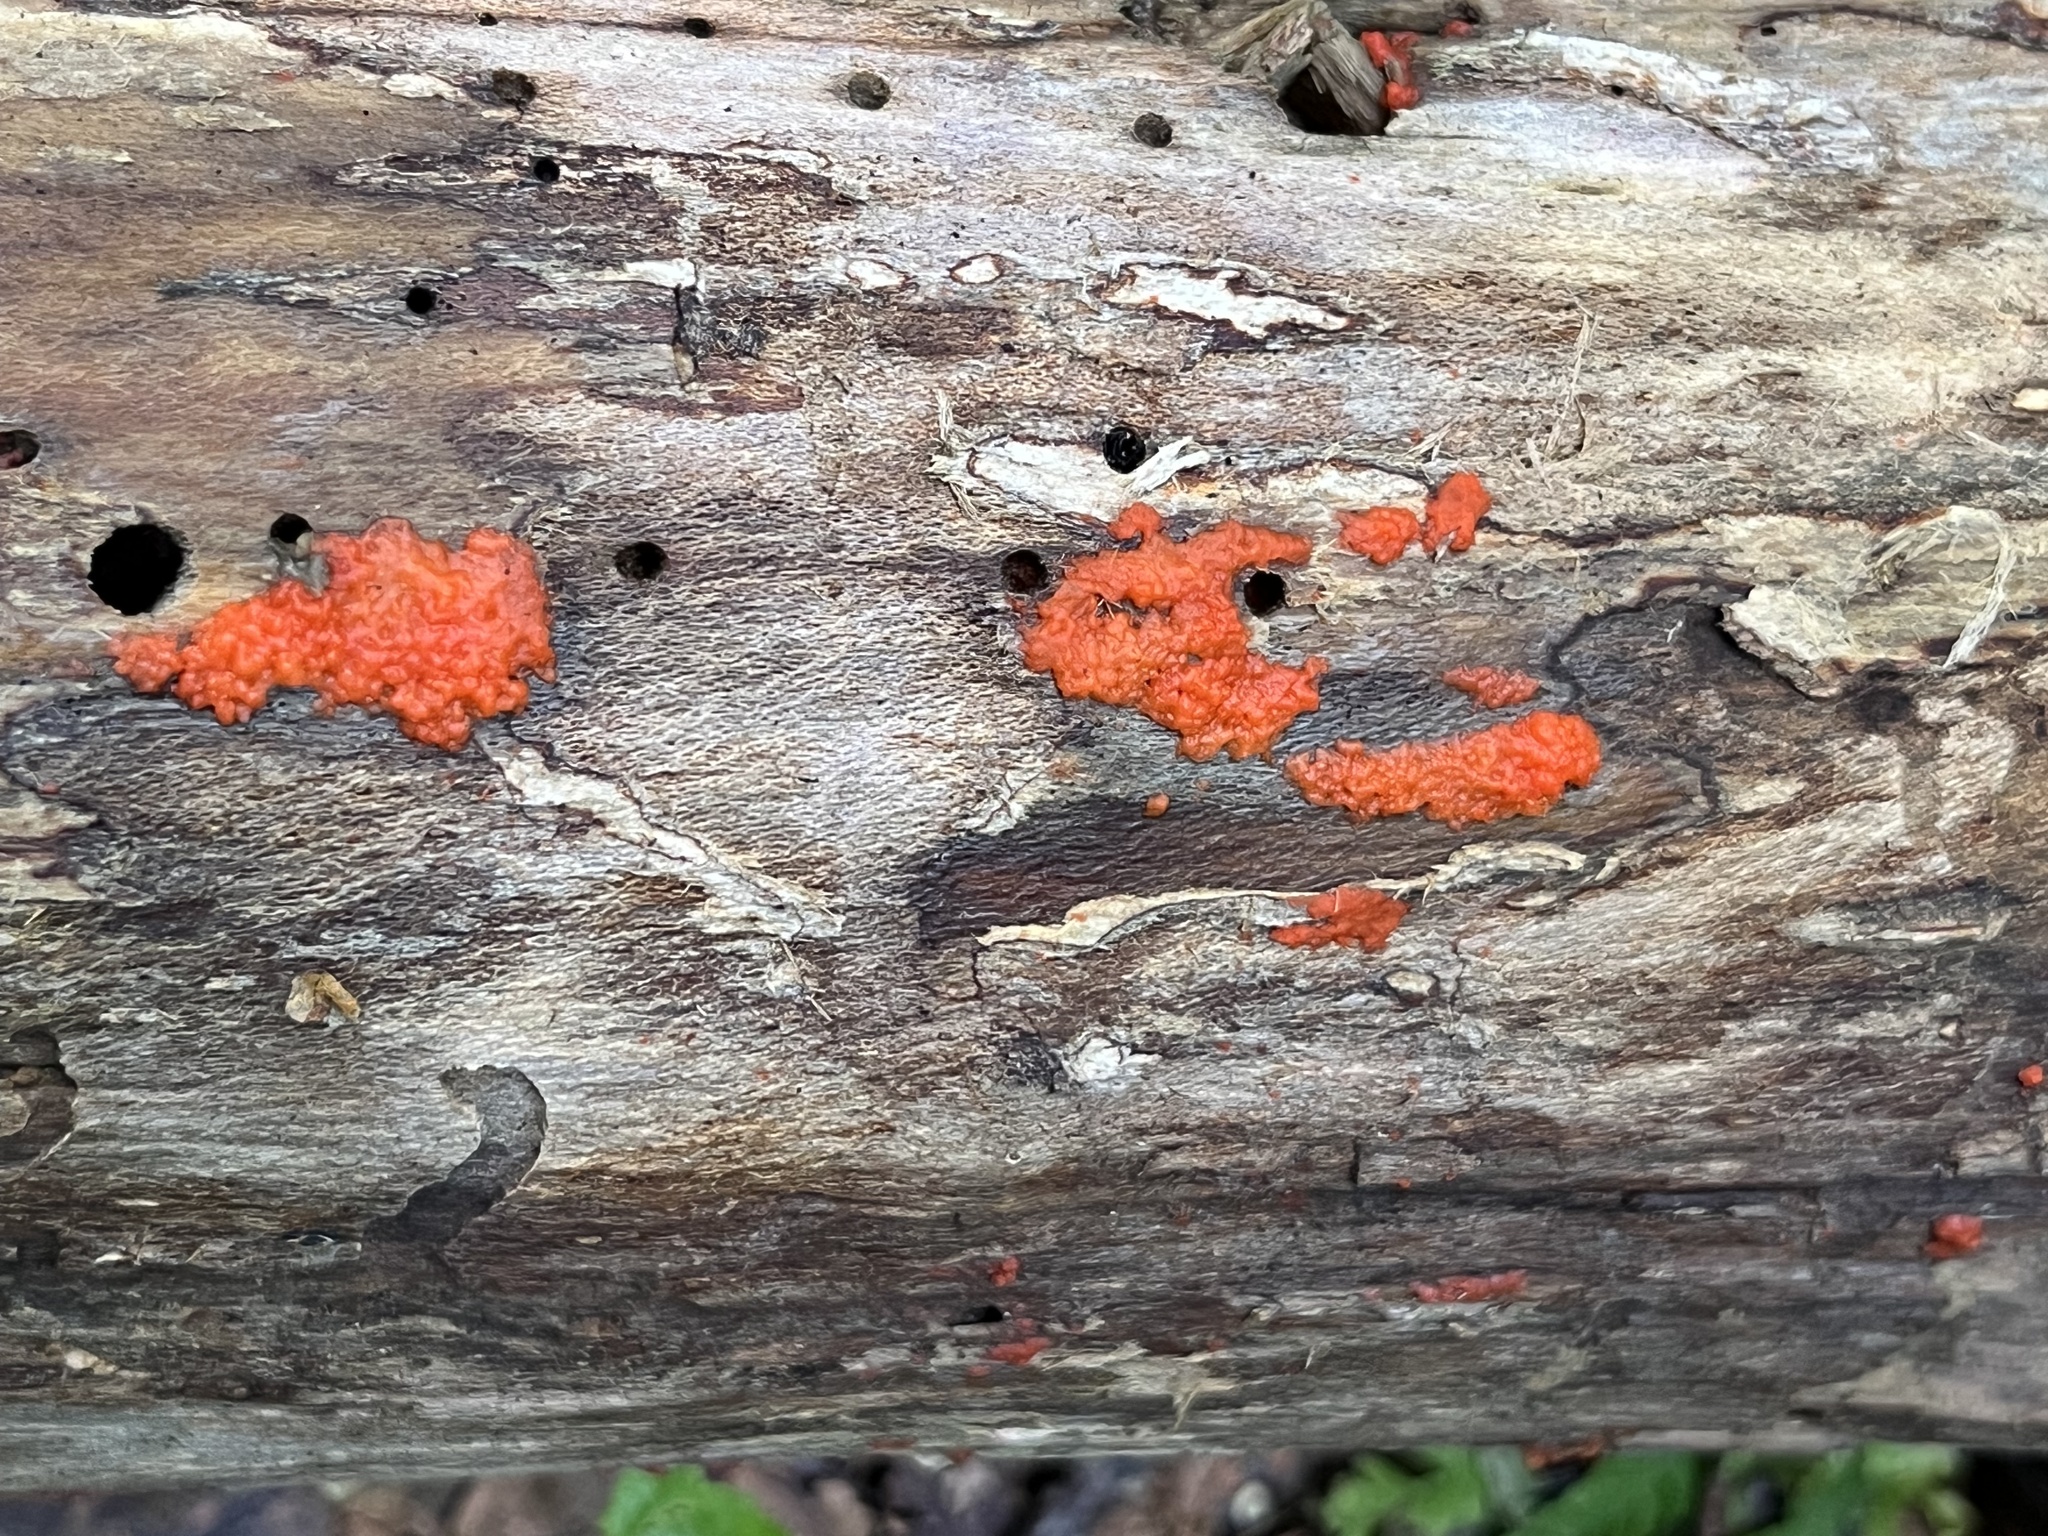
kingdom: Fungi
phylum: Basidiomycota
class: Agaricomycetes
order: Cantharellales
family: Tulasnellaceae
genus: Tulasnella
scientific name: Tulasnella aurantiaca
